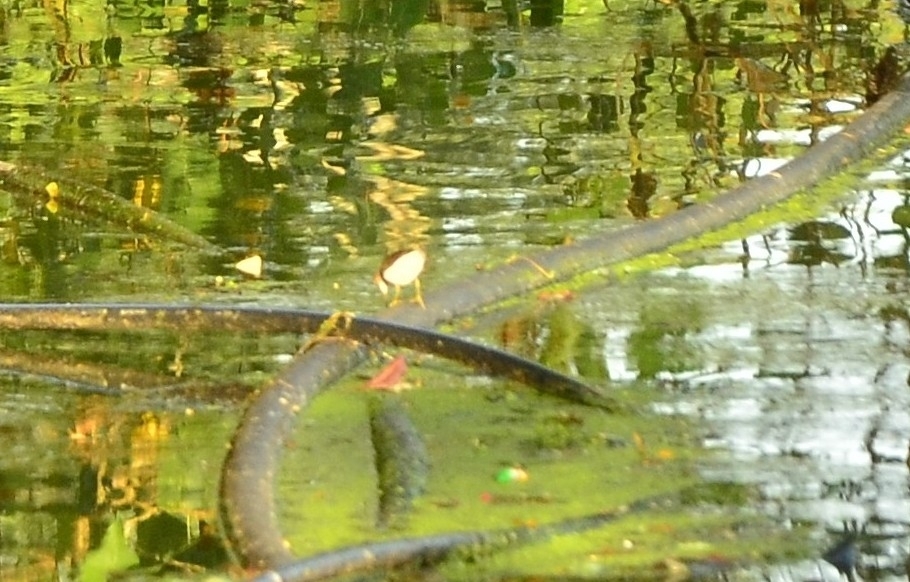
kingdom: Animalia
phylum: Chordata
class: Aves
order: Charadriiformes
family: Scolopacidae
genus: Actitis
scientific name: Actitis hypoleucos
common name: Common sandpiper
